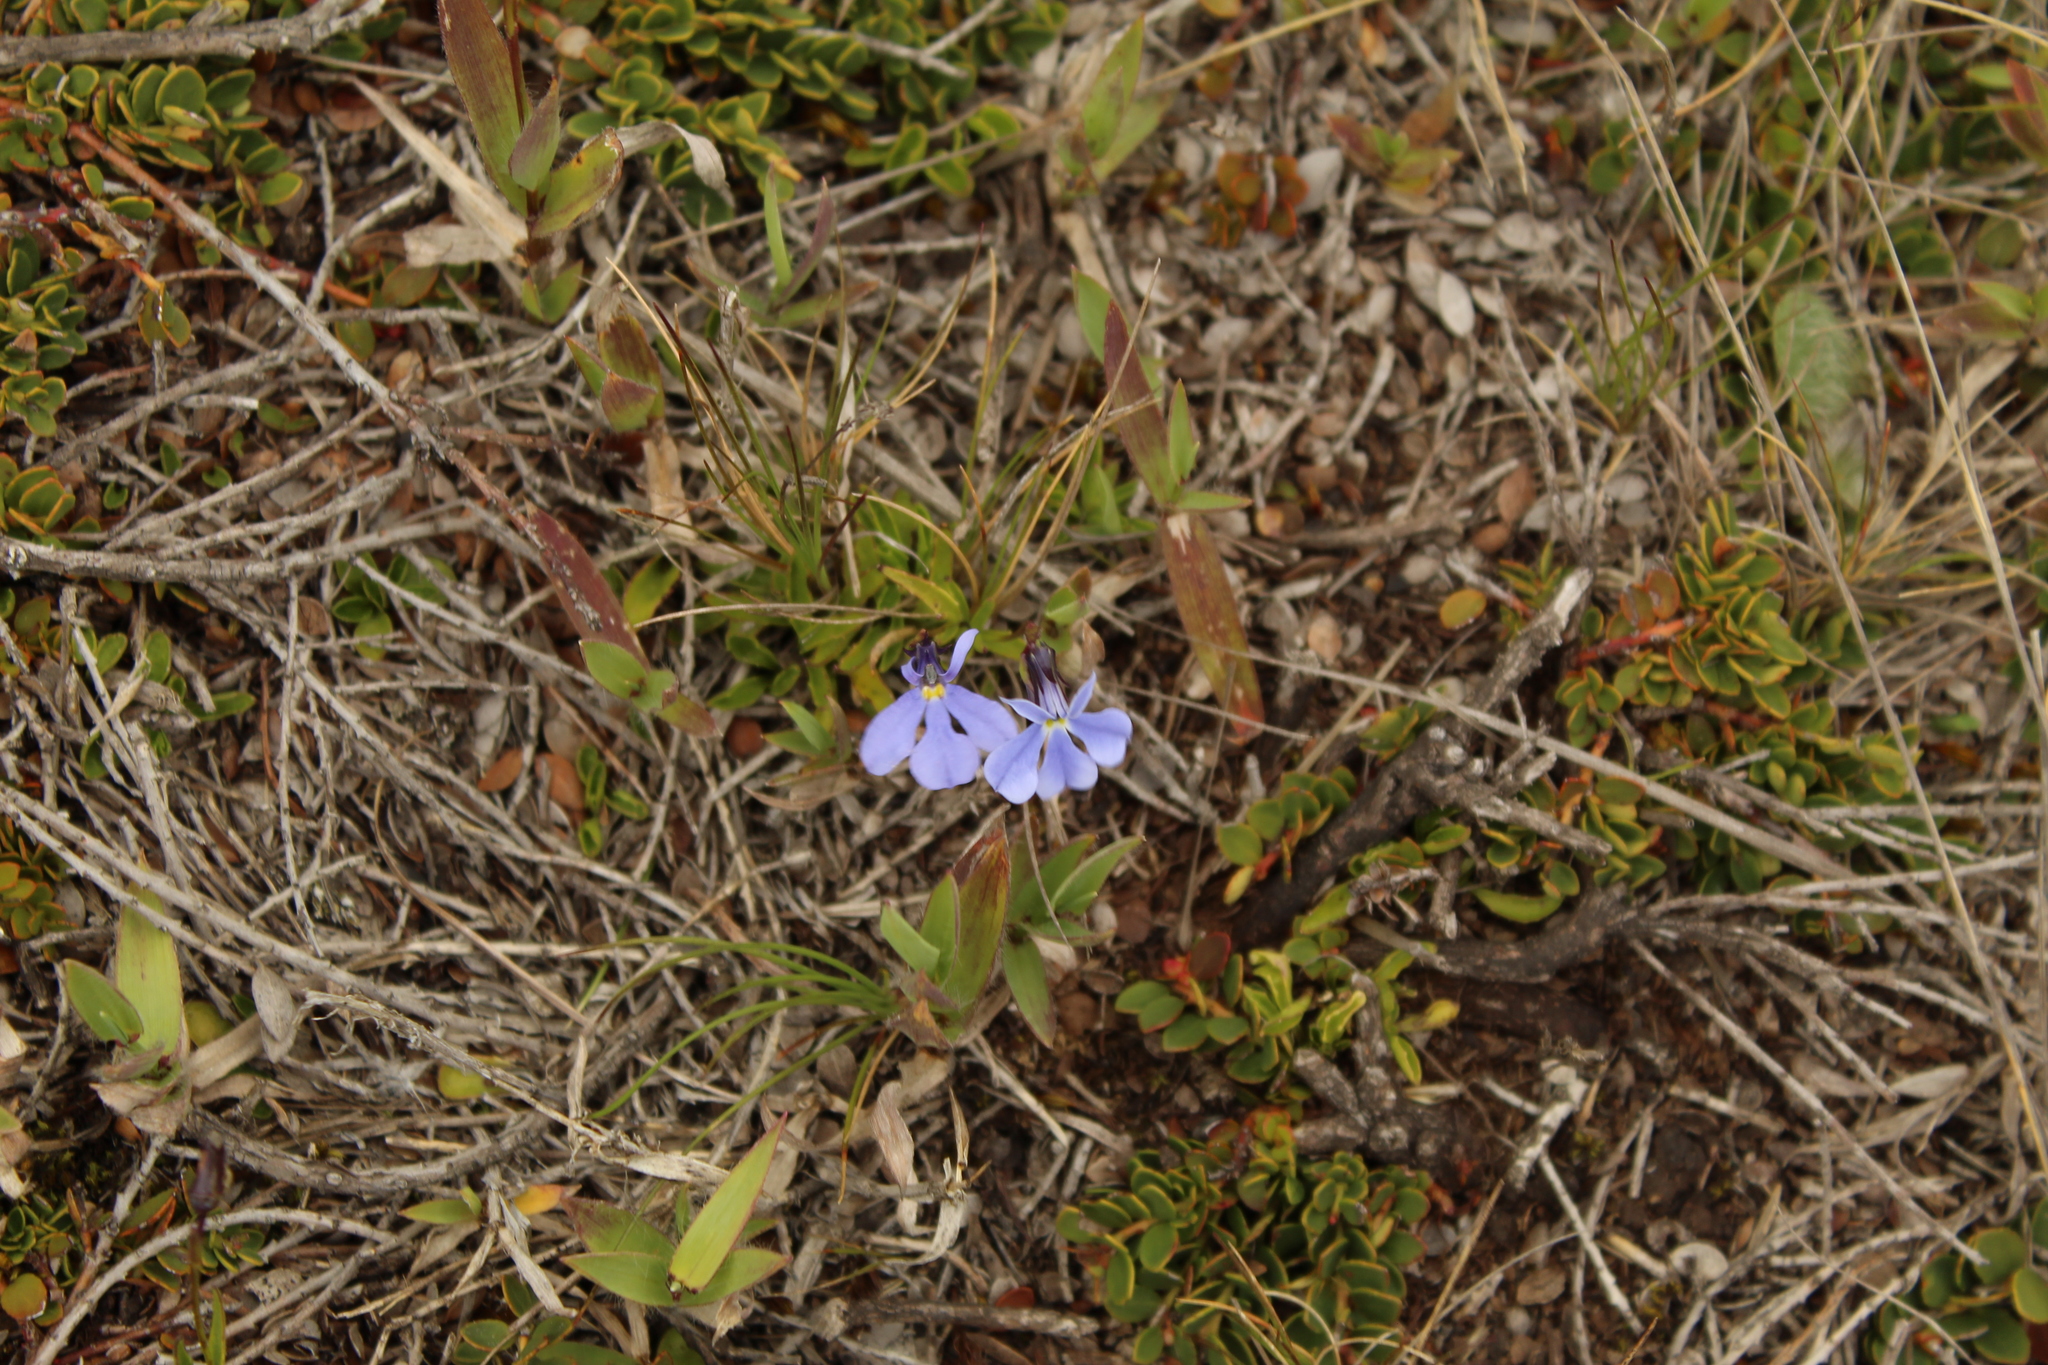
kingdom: Plantae
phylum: Tracheophyta
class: Magnoliopsida
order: Asterales
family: Campanulaceae
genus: Lobelia
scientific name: Lobelia tenera
